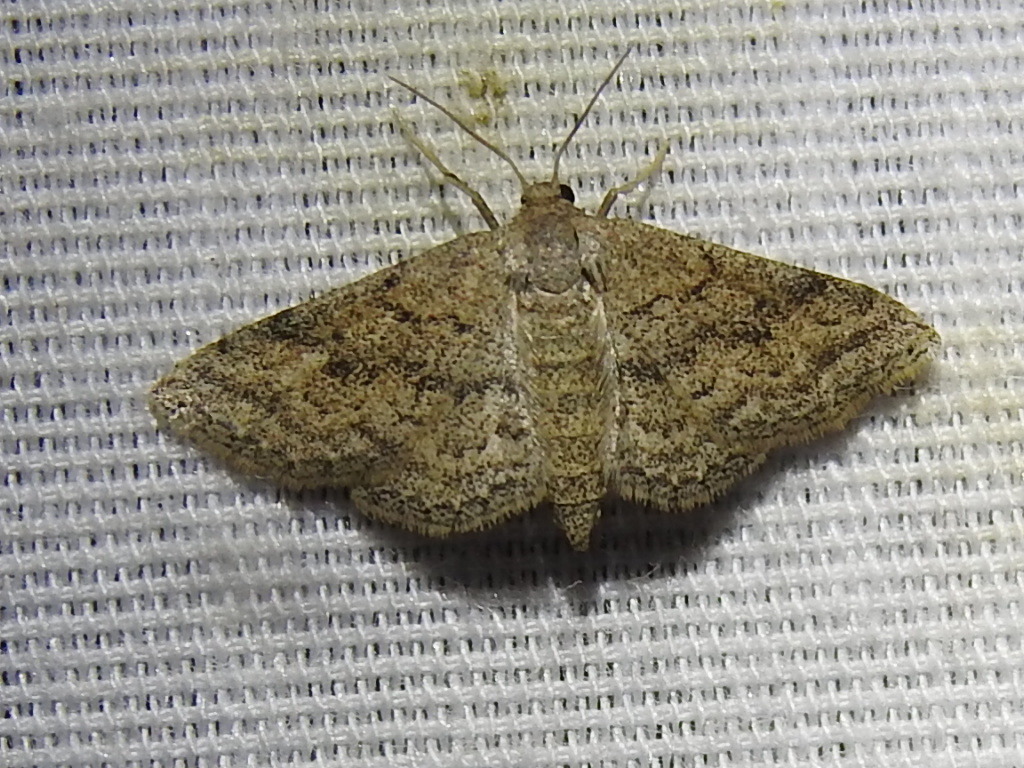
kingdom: Animalia
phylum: Arthropoda
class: Insecta
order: Lepidoptera
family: Geometridae
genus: Lobocleta
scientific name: Lobocleta ossularia
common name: Drab brown wave
